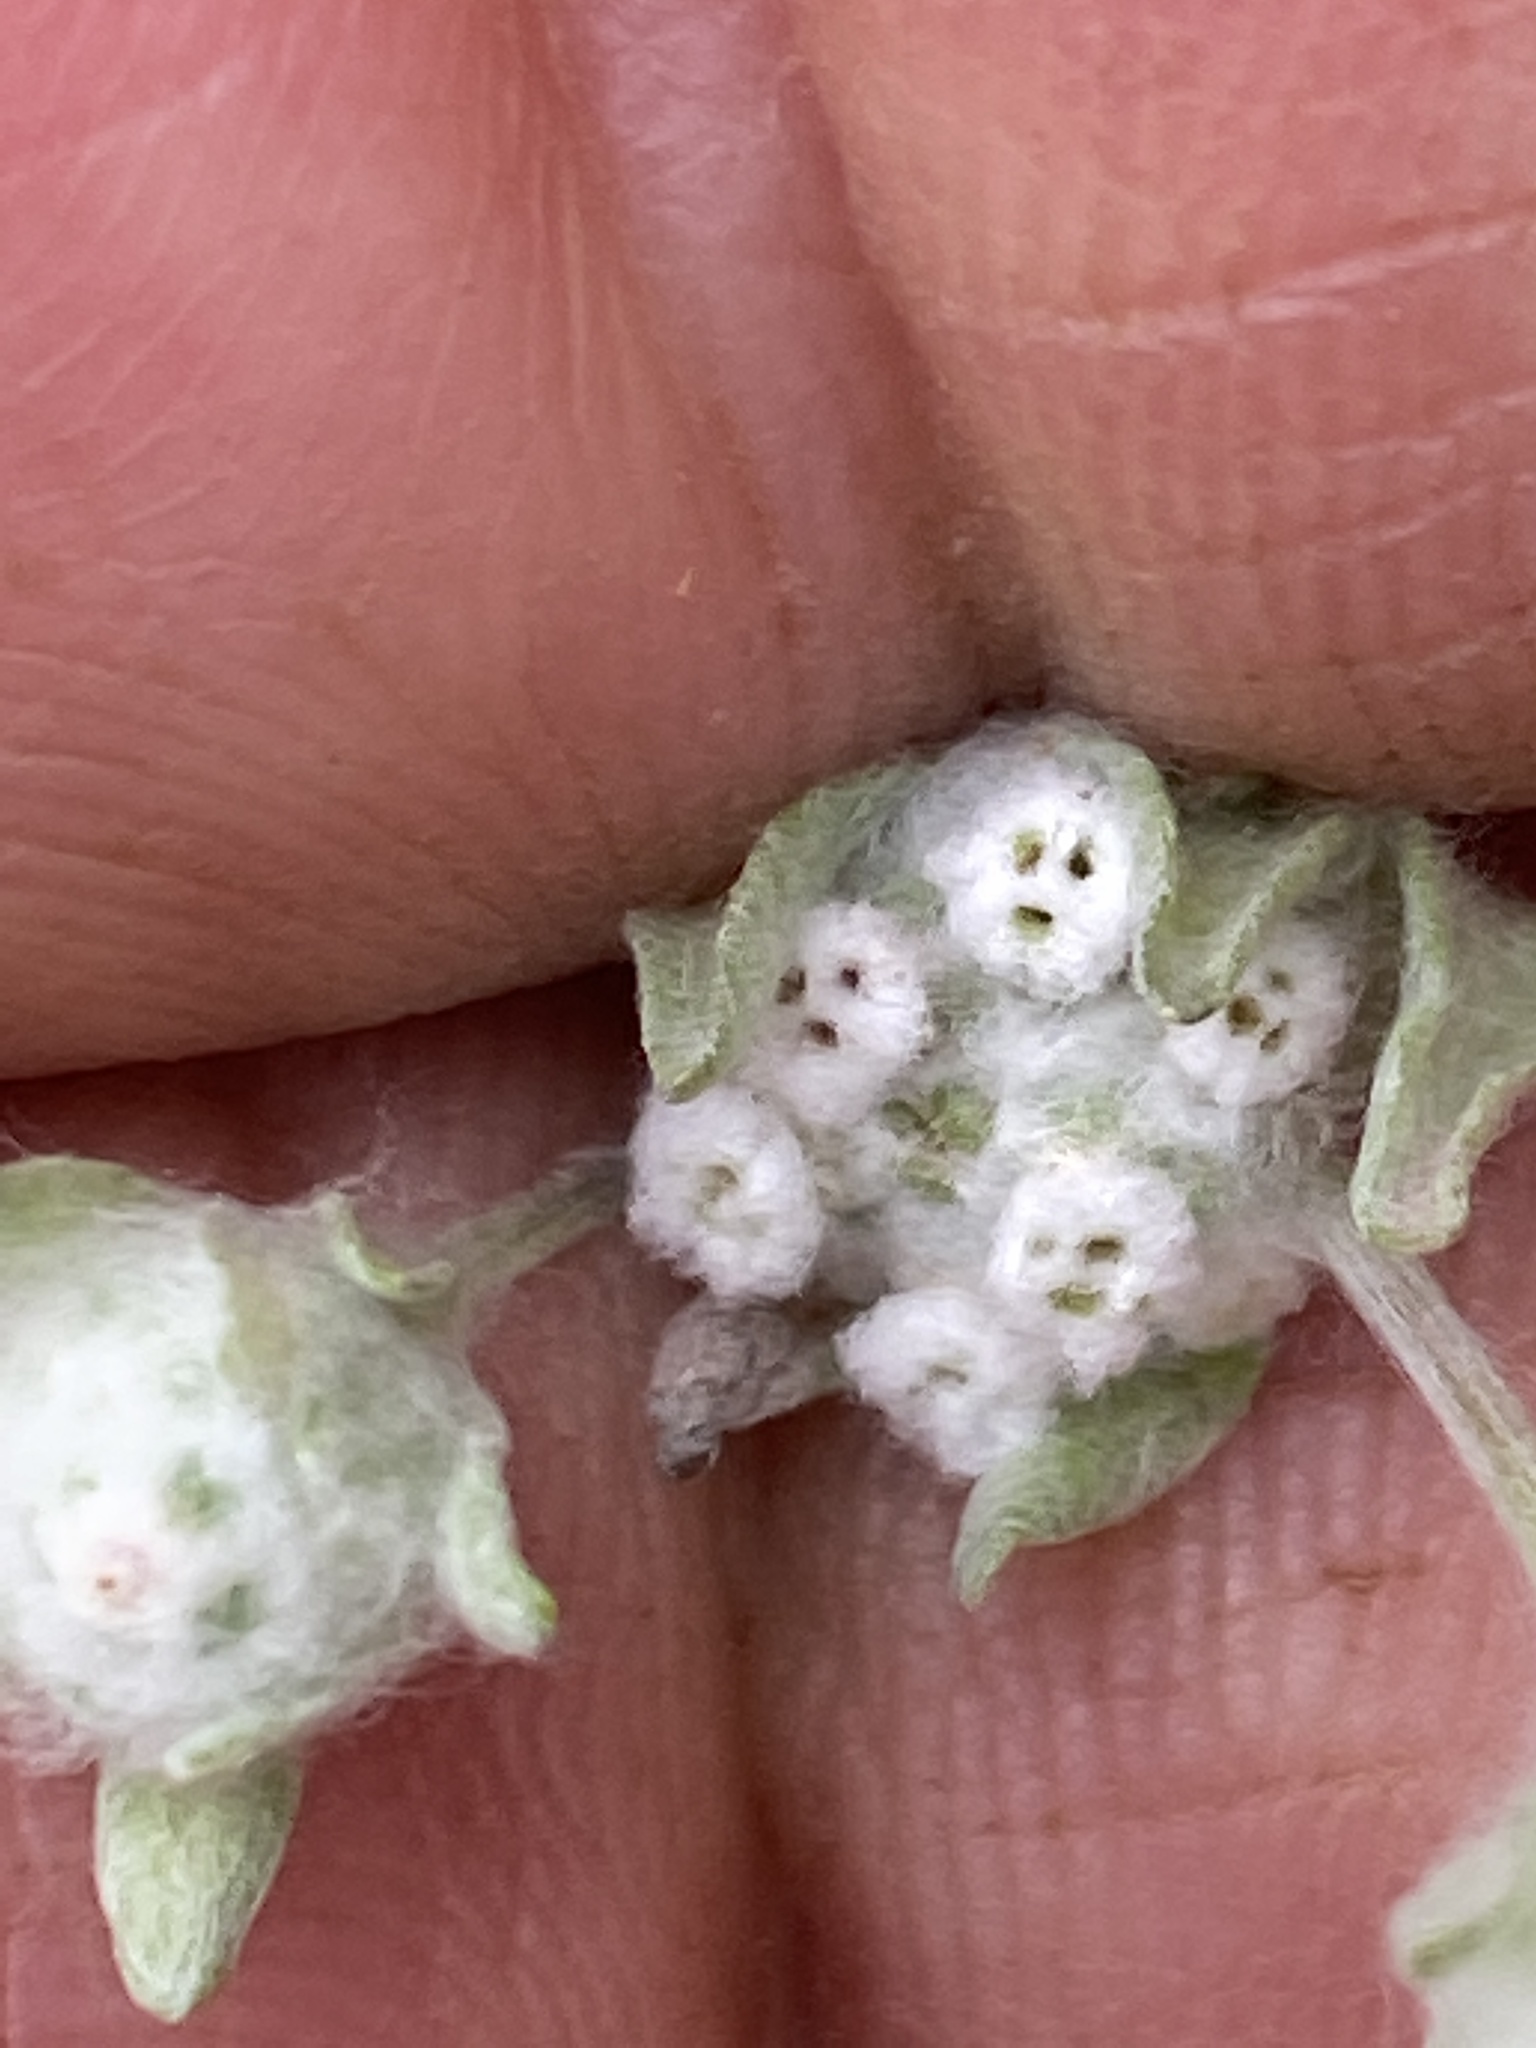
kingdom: Plantae
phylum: Tracheophyta
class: Magnoliopsida
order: Asterales
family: Asteraceae
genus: Diaperia
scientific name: Diaperia verna
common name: Many-stem rabbit-tobacco
